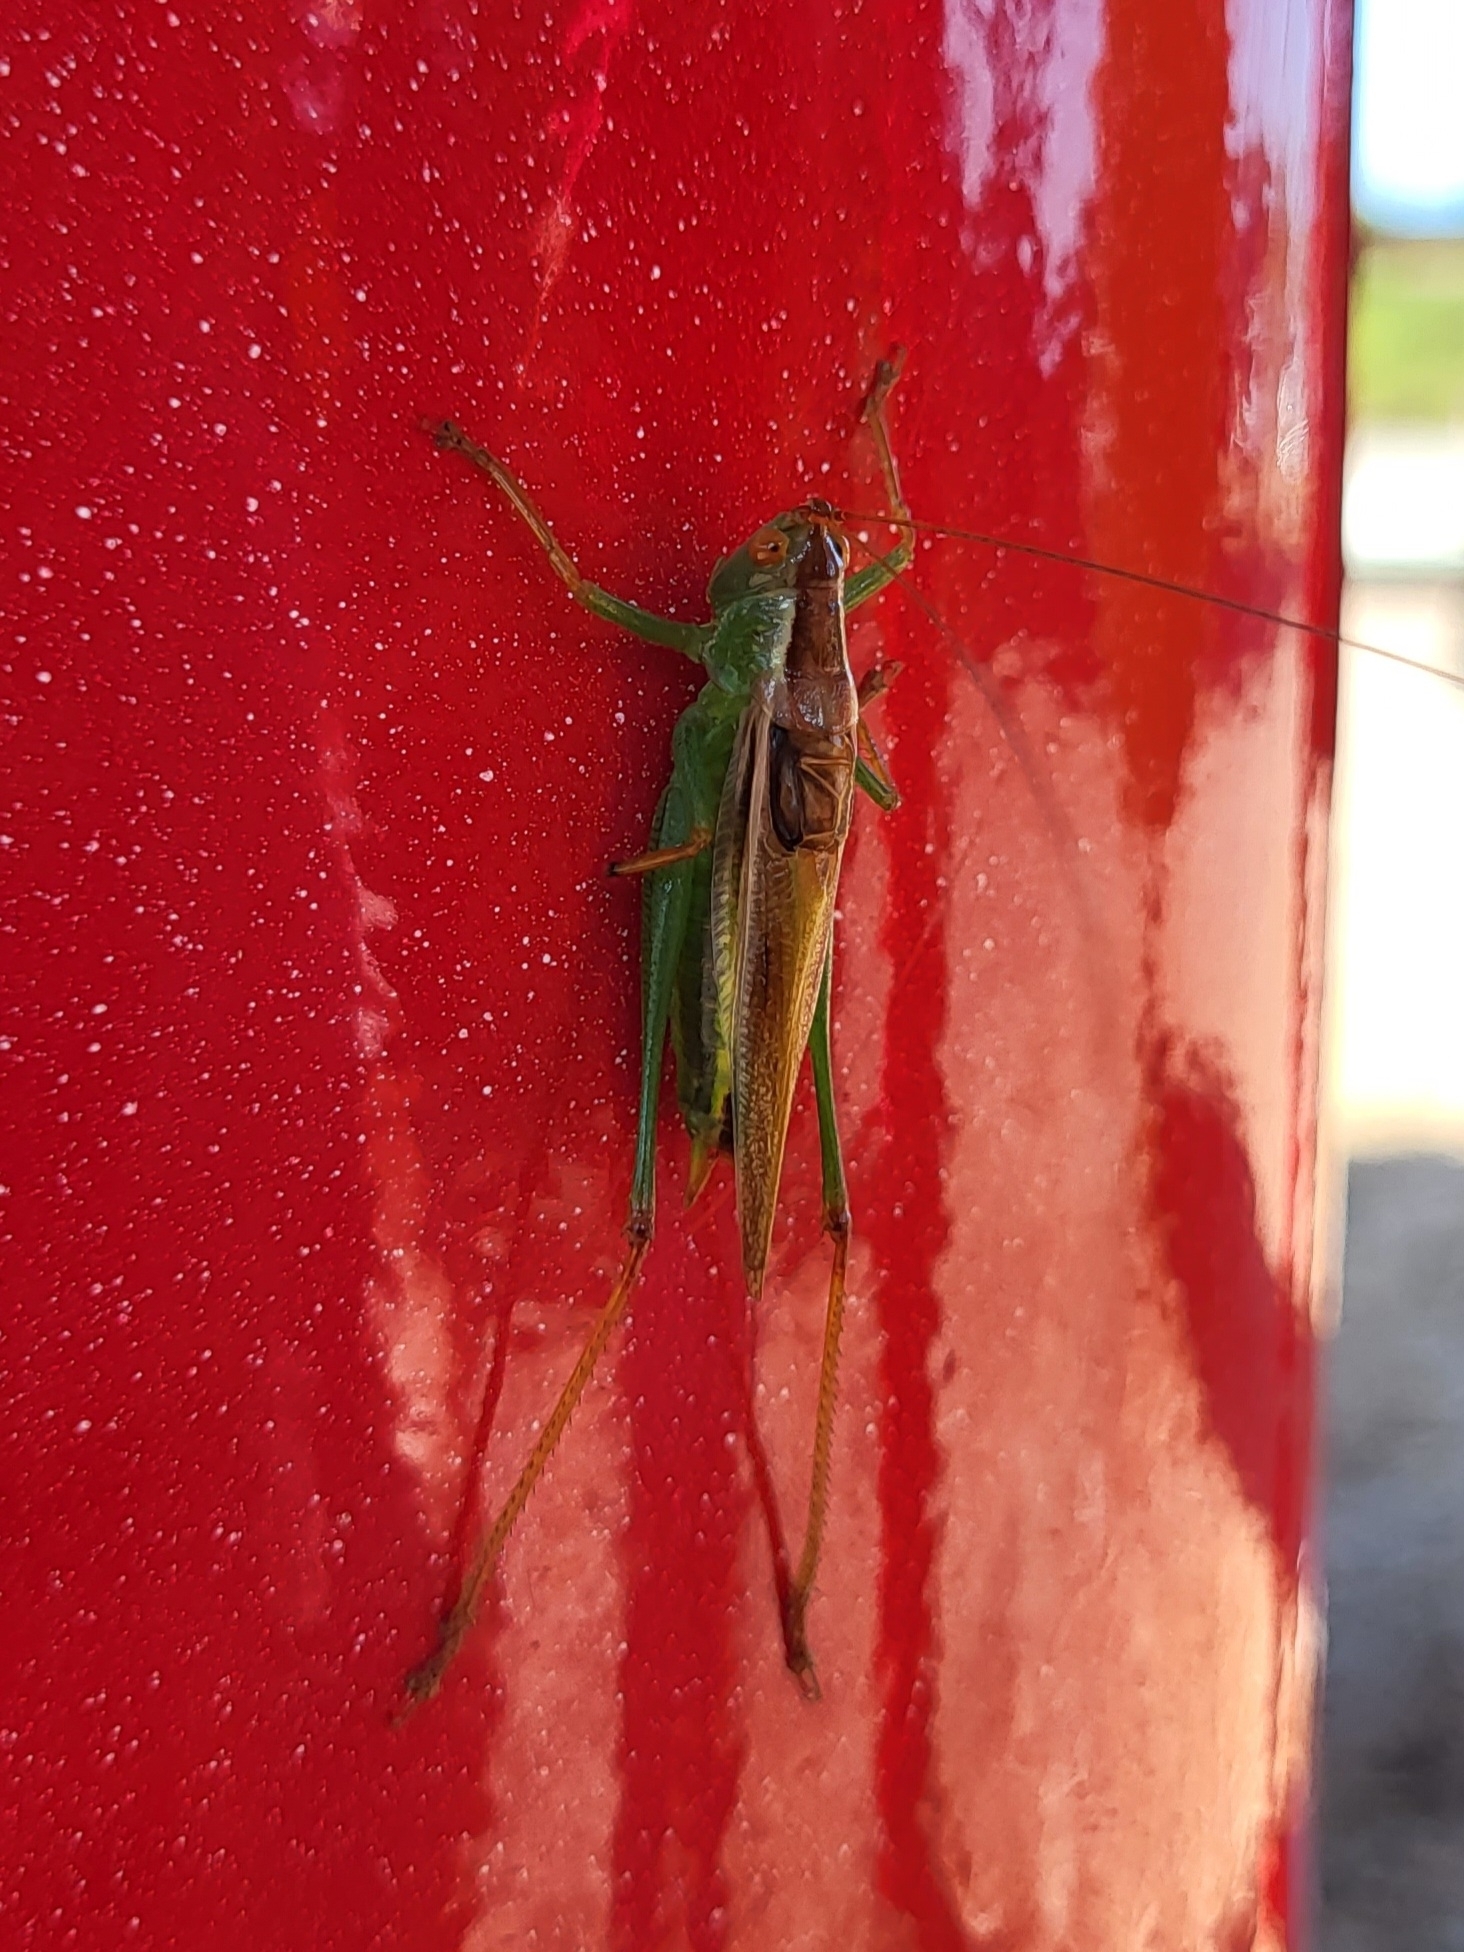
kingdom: Animalia
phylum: Arthropoda
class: Insecta
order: Orthoptera
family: Tettigoniidae
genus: Orchelimum
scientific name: Orchelimum minor
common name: Lesser pine meadow katydid
